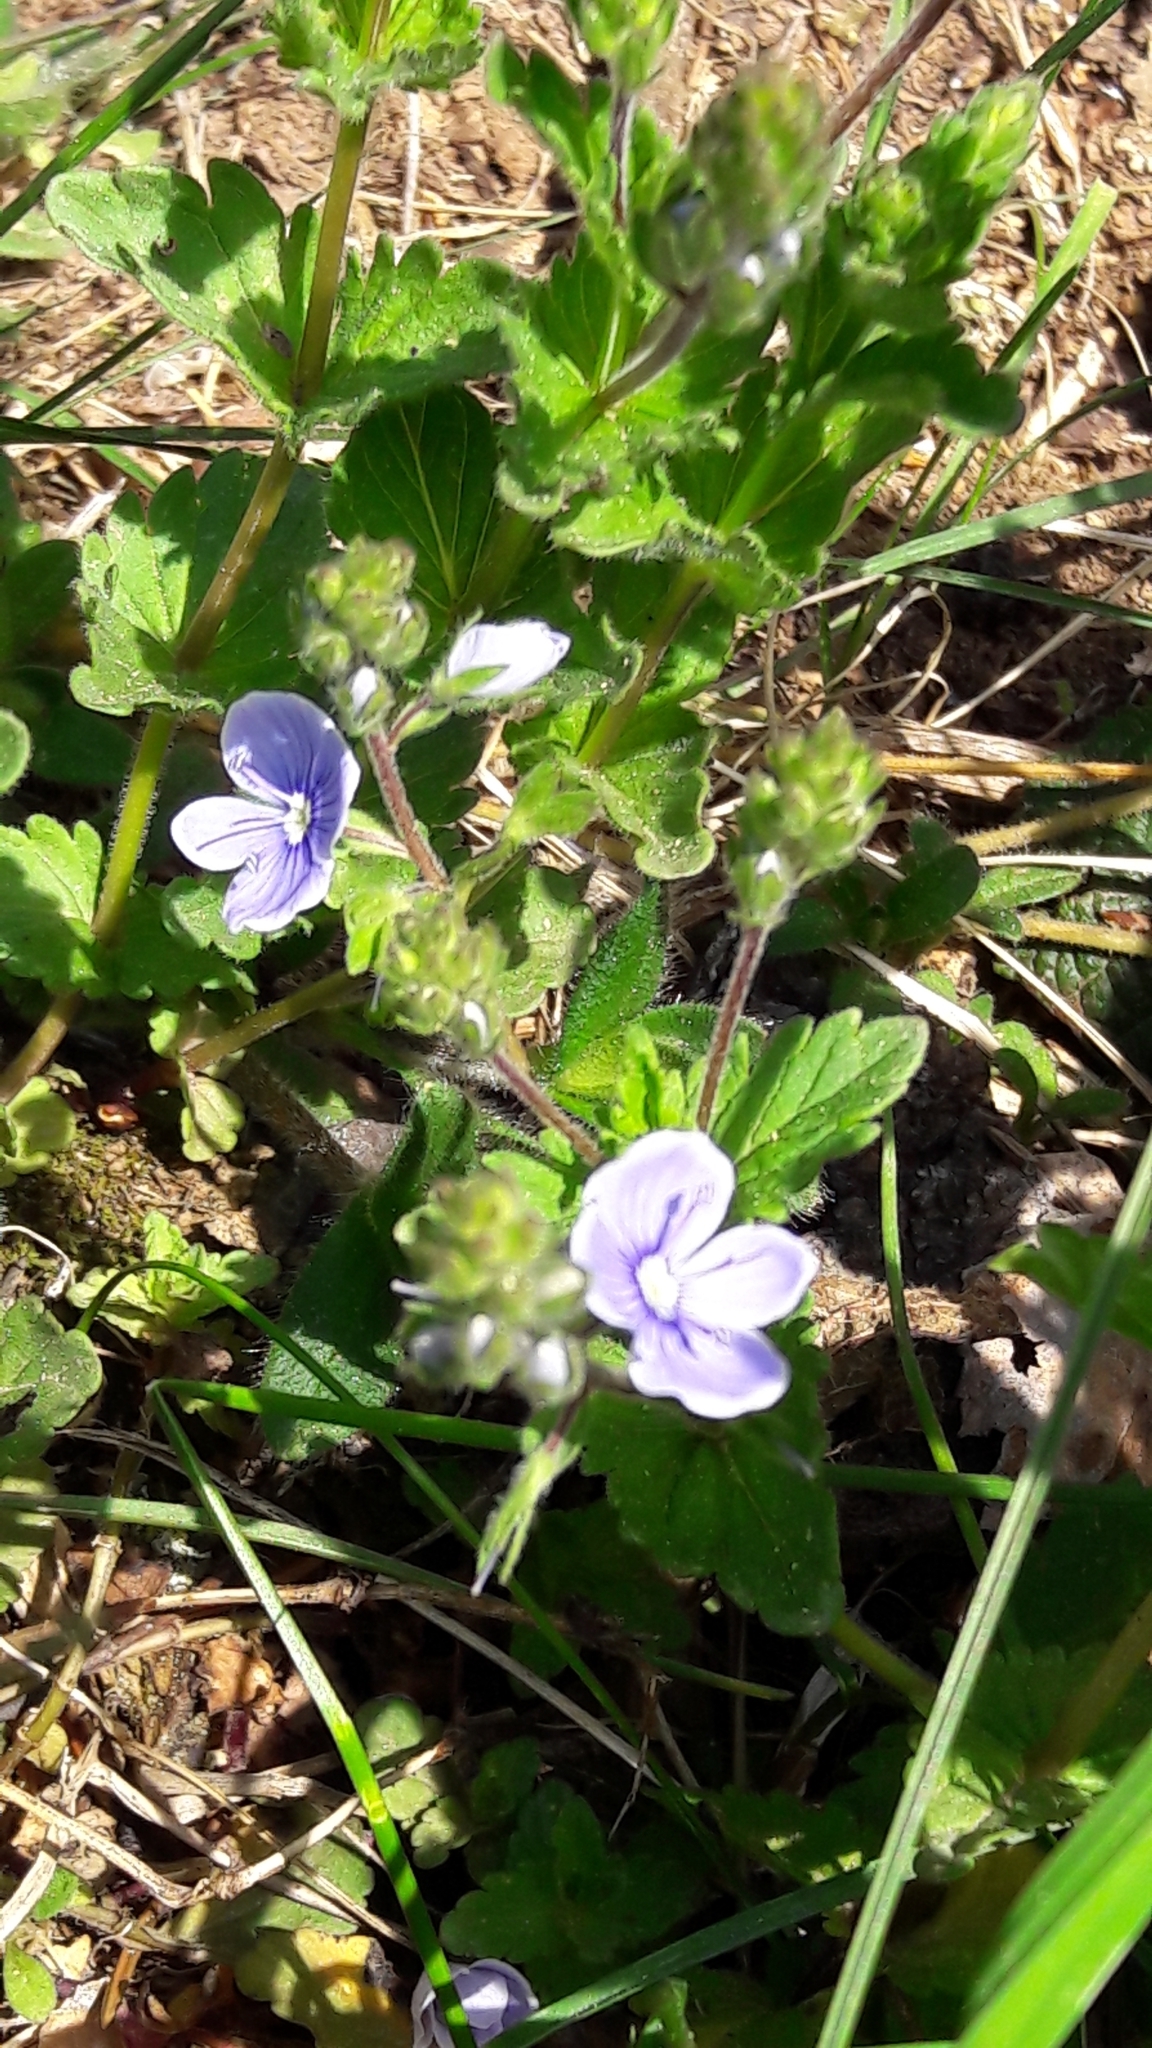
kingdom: Plantae
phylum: Tracheophyta
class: Magnoliopsida
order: Lamiales
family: Plantaginaceae
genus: Veronica
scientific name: Veronica chamaedrys
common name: Germander speedwell
